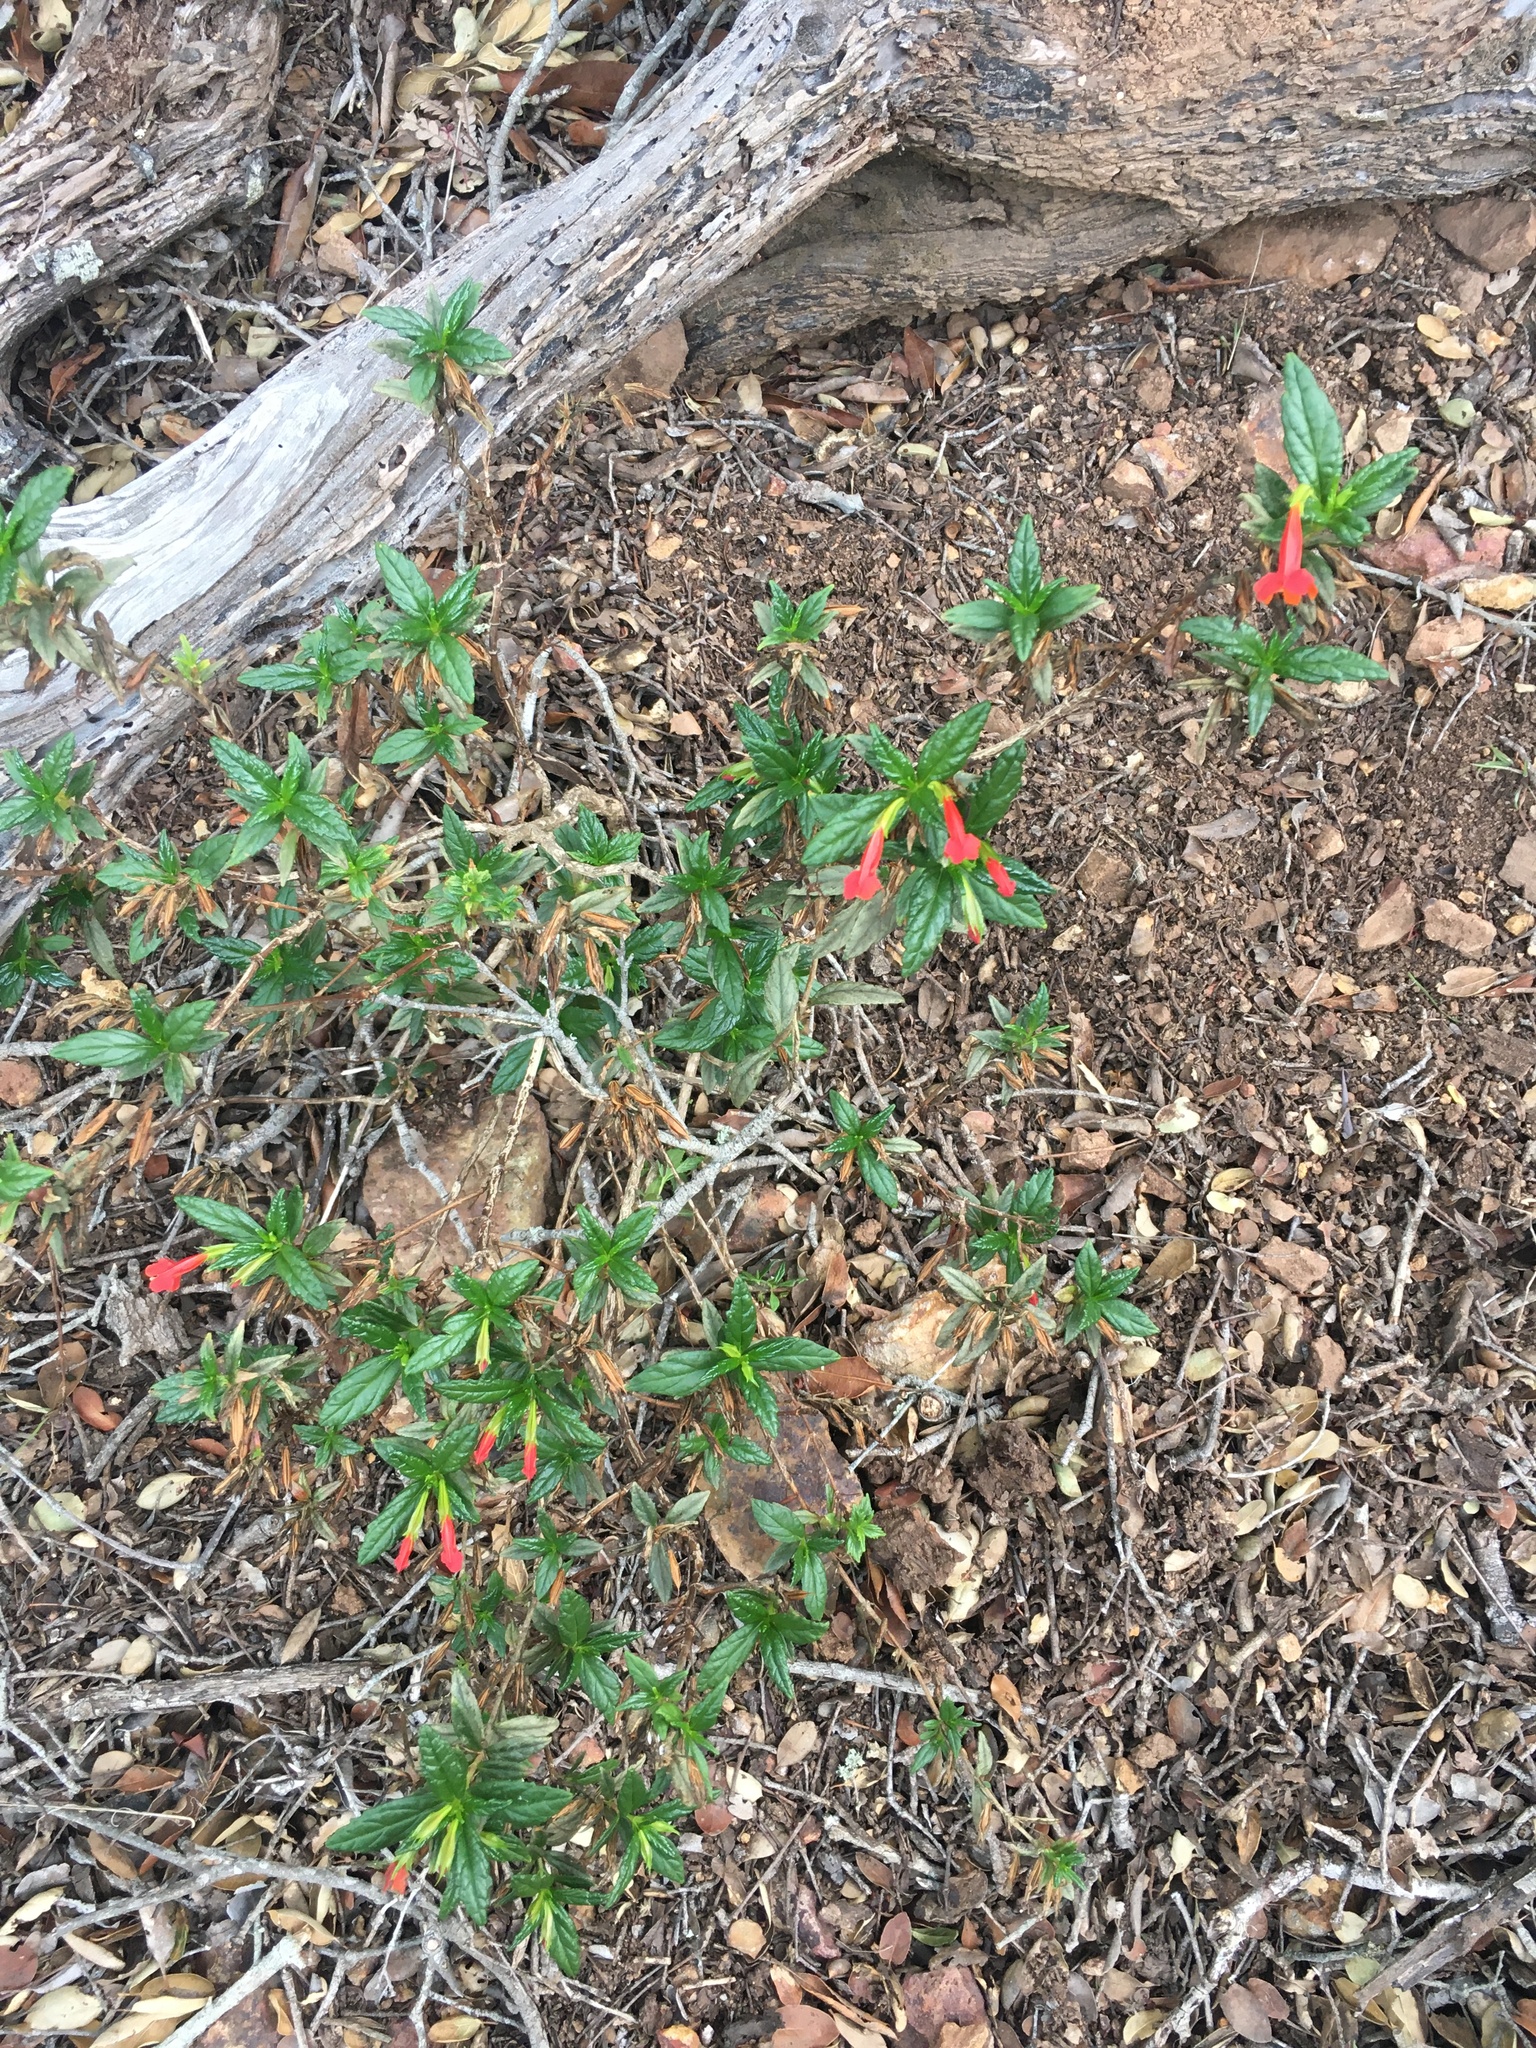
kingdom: Plantae
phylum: Tracheophyta
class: Magnoliopsida
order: Lamiales
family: Phrymaceae
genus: Diplacus
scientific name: Diplacus parviflorus
